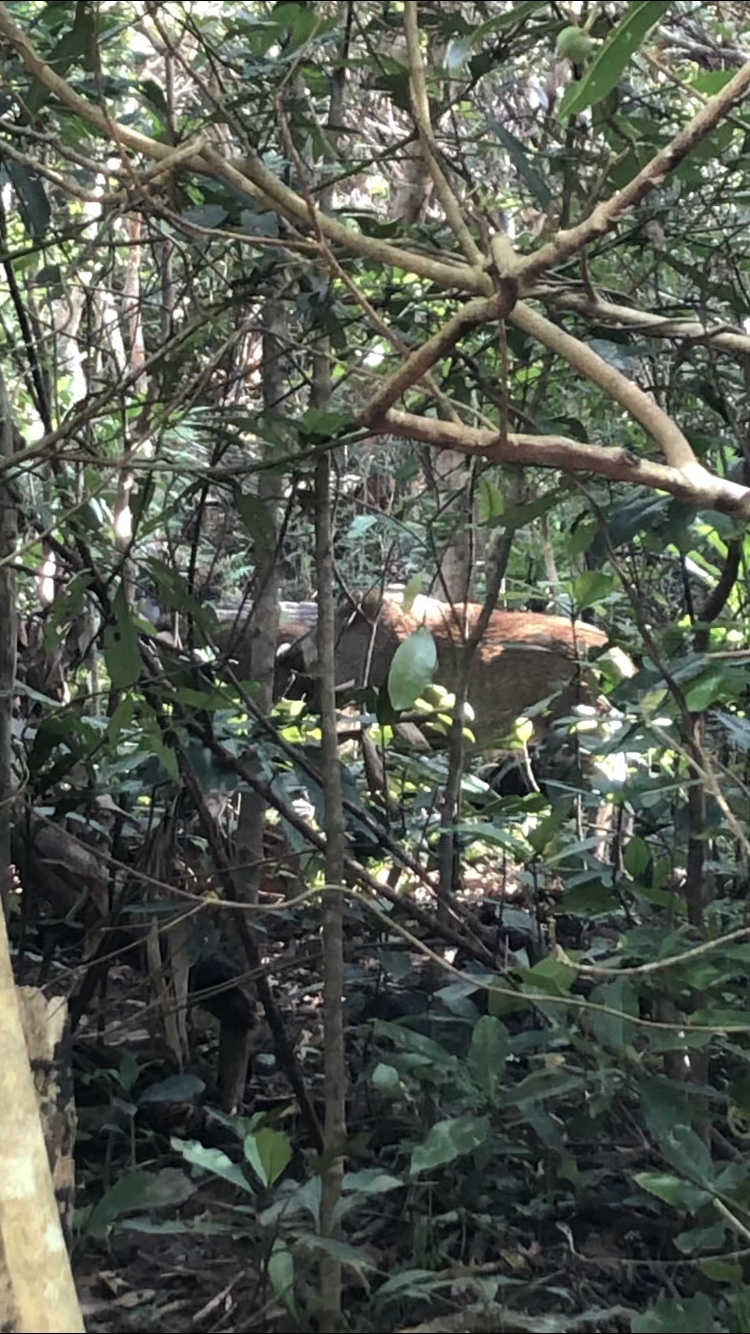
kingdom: Animalia
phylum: Chordata
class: Mammalia
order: Artiodactyla
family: Suidae
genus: Sus
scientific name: Sus scrofa
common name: Wild boar
